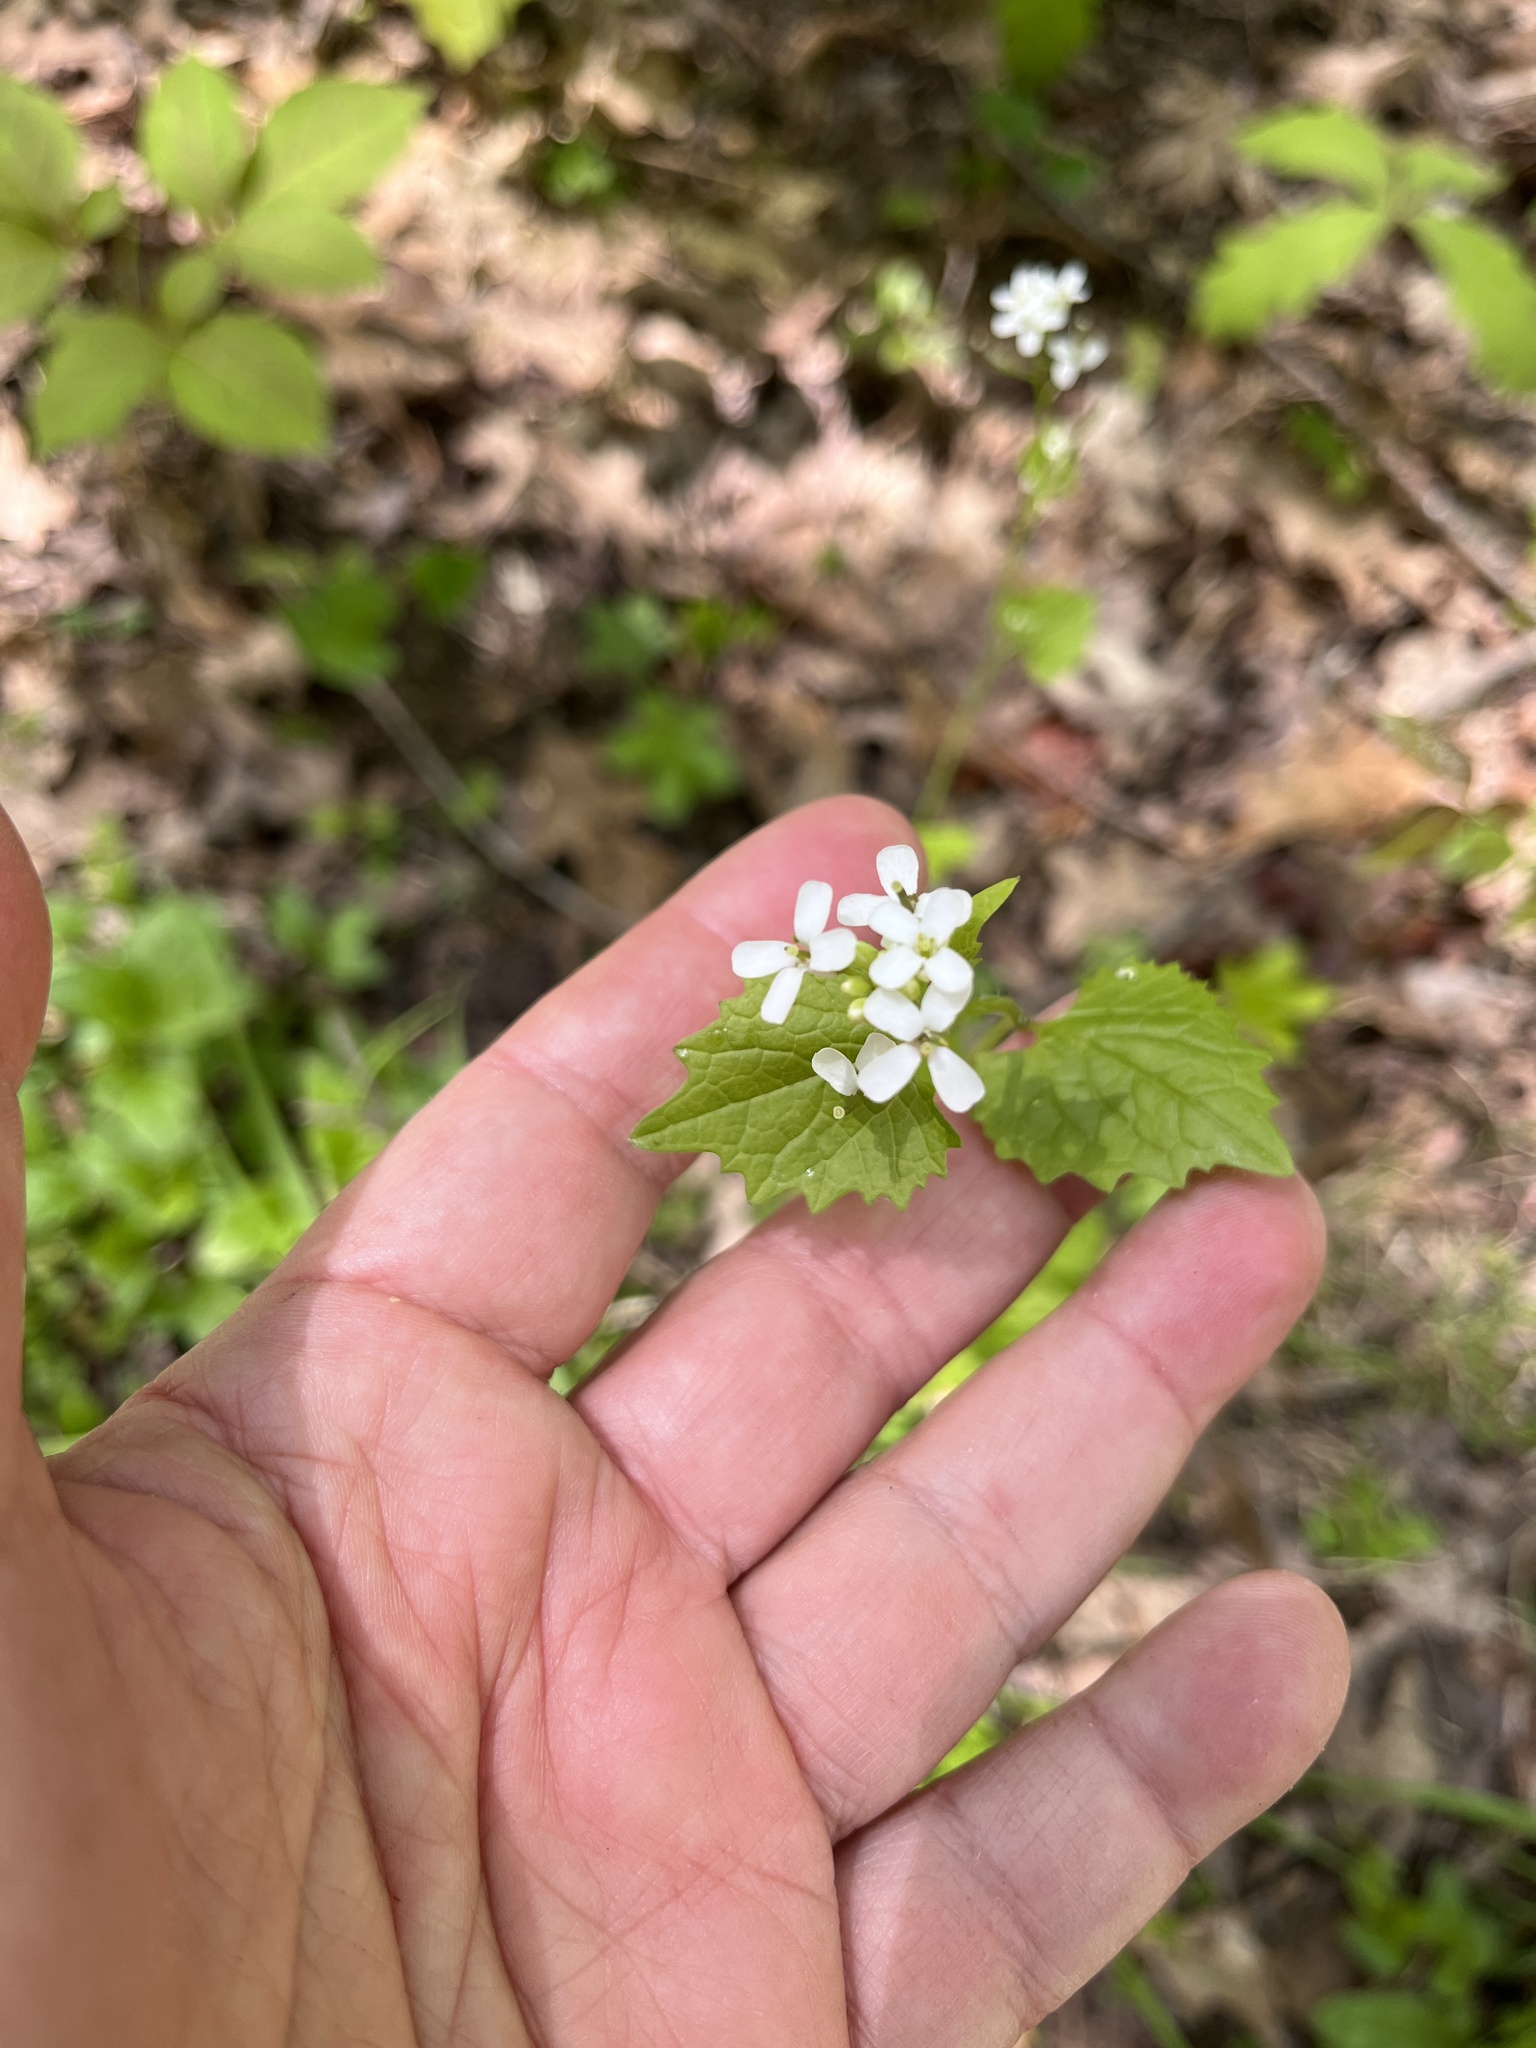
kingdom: Plantae
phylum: Tracheophyta
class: Magnoliopsida
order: Brassicales
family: Brassicaceae
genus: Alliaria
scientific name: Alliaria petiolata
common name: Garlic mustard
